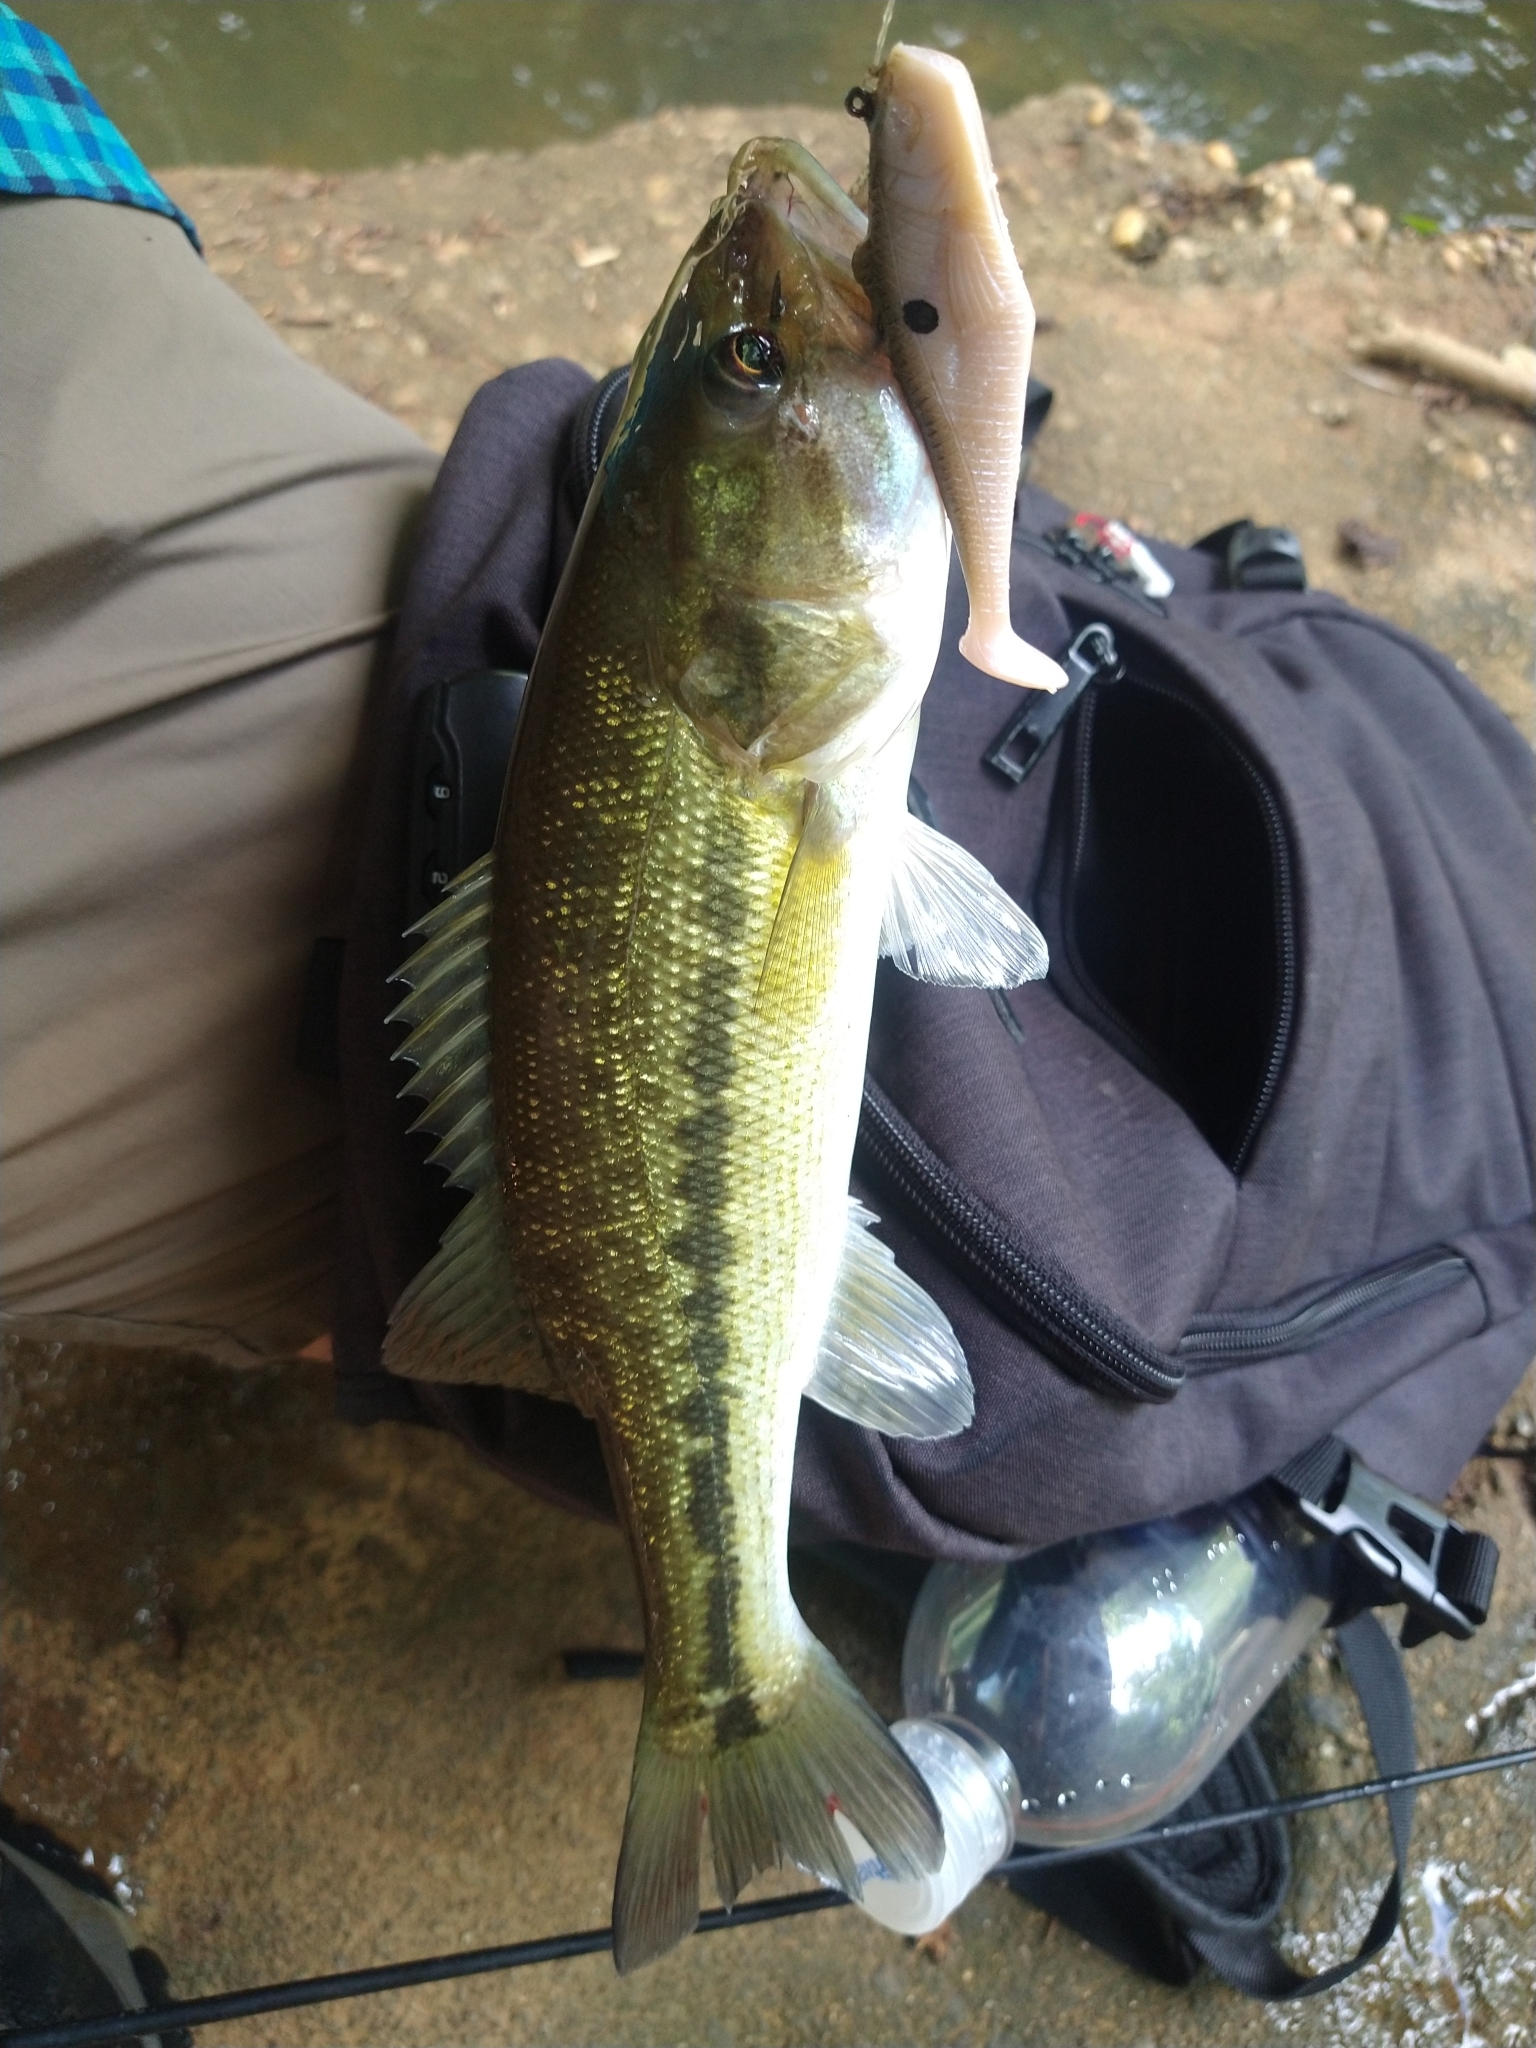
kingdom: Animalia
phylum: Chordata
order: Perciformes
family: Centrarchidae
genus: Micropterus
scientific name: Micropterus henshalli
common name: Alabama bass
